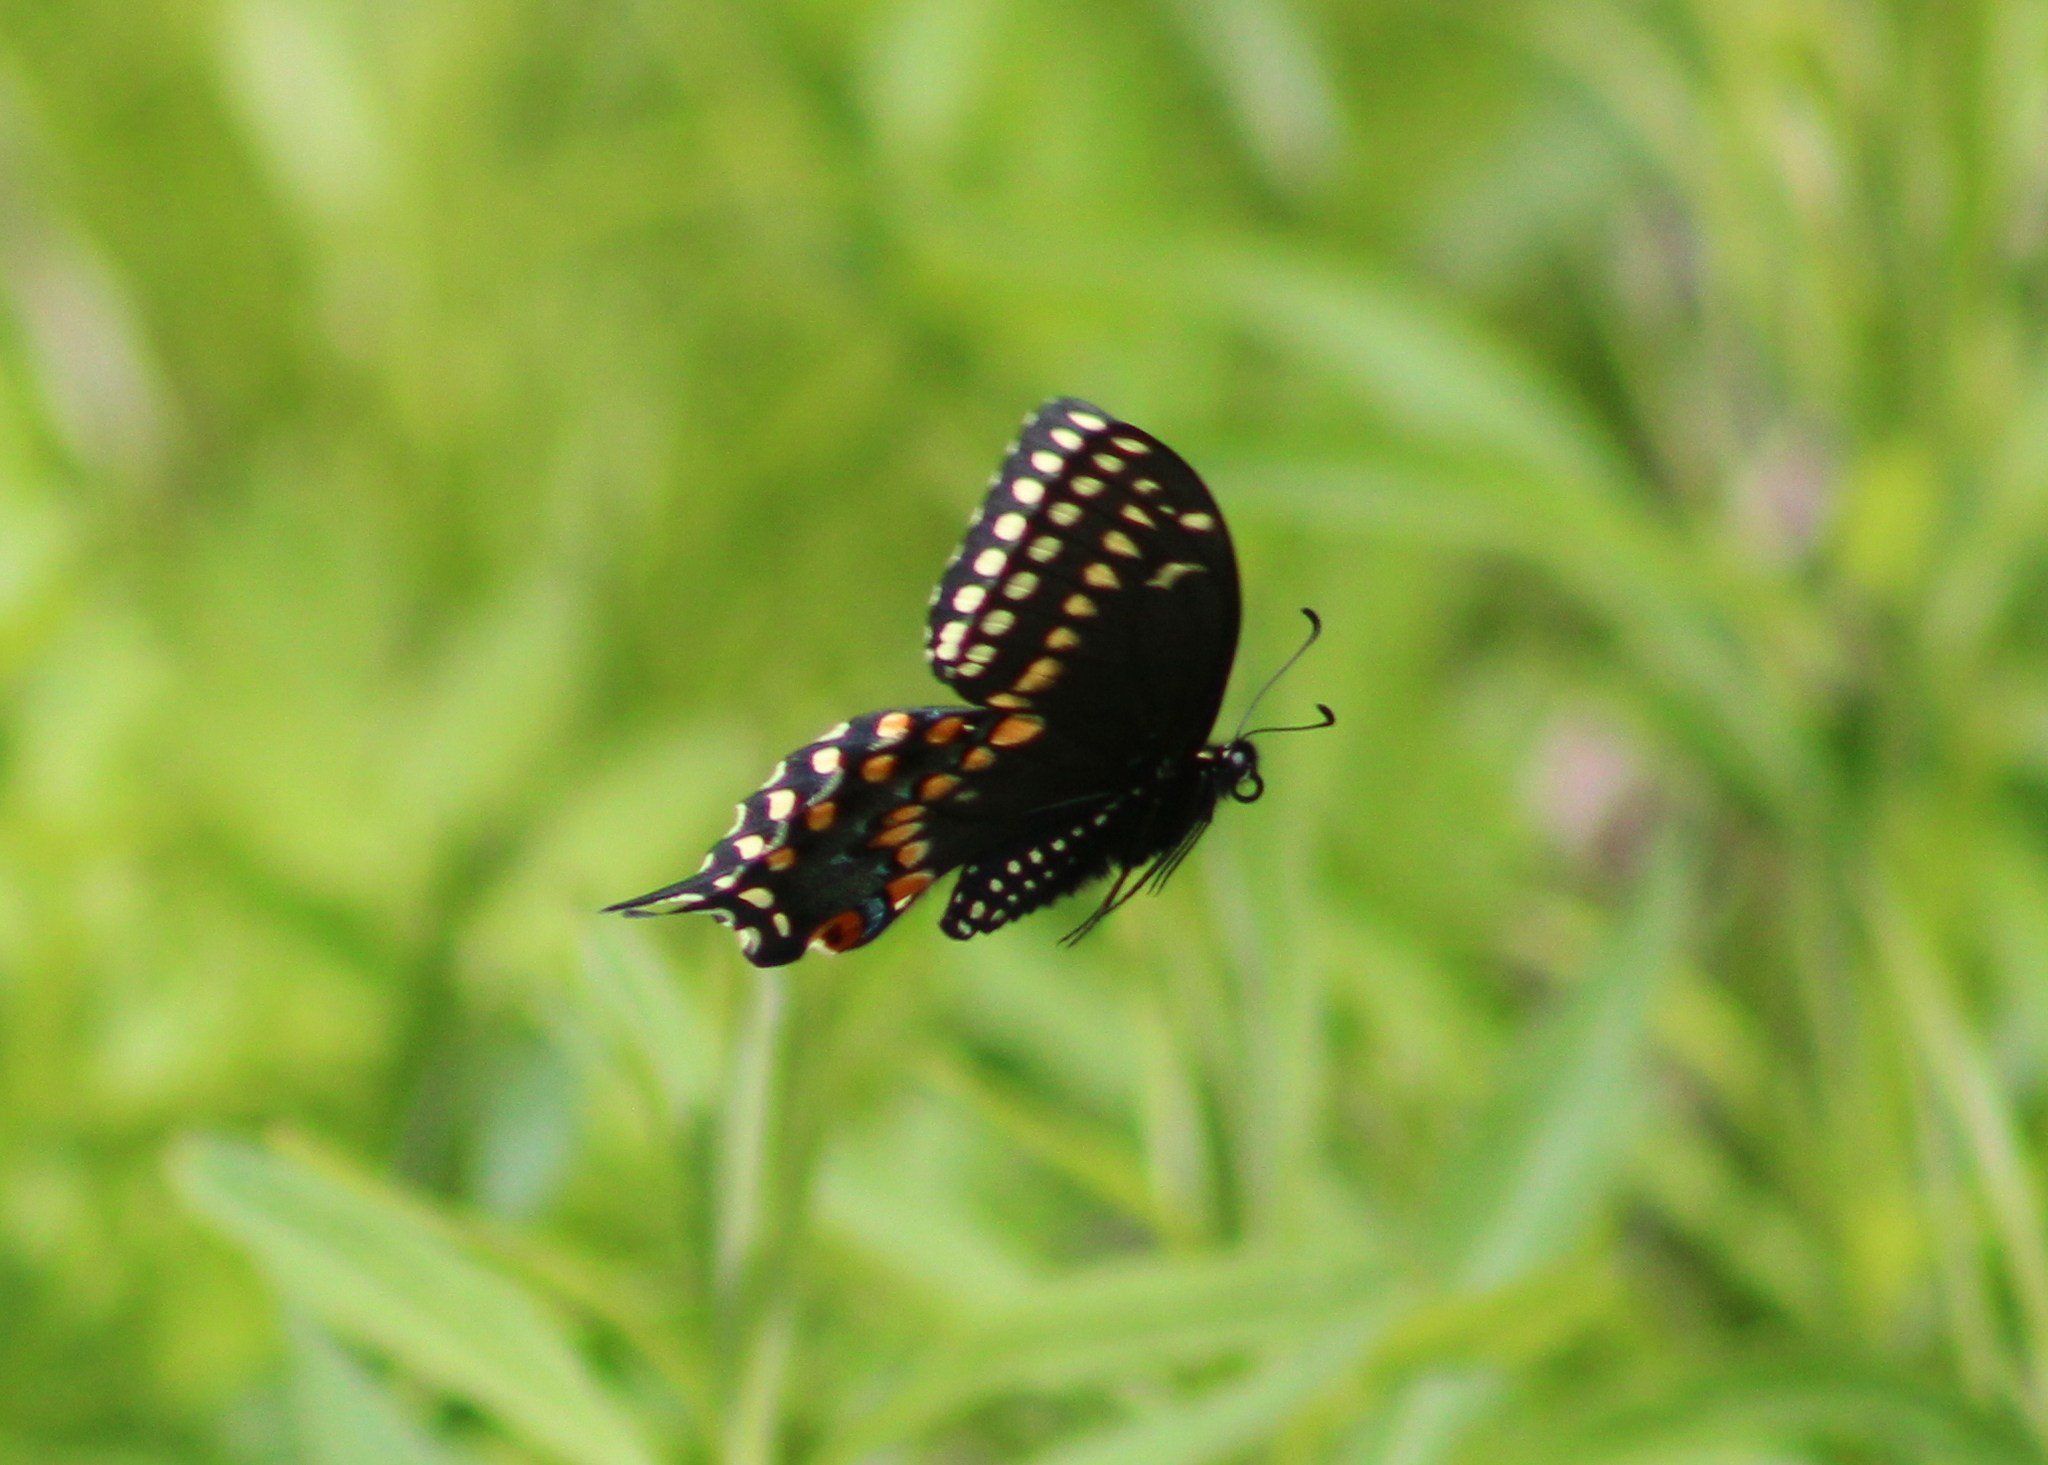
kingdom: Animalia
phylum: Arthropoda
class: Insecta
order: Lepidoptera
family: Papilionidae
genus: Papilio
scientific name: Papilio polyxenes
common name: Black swallowtail
